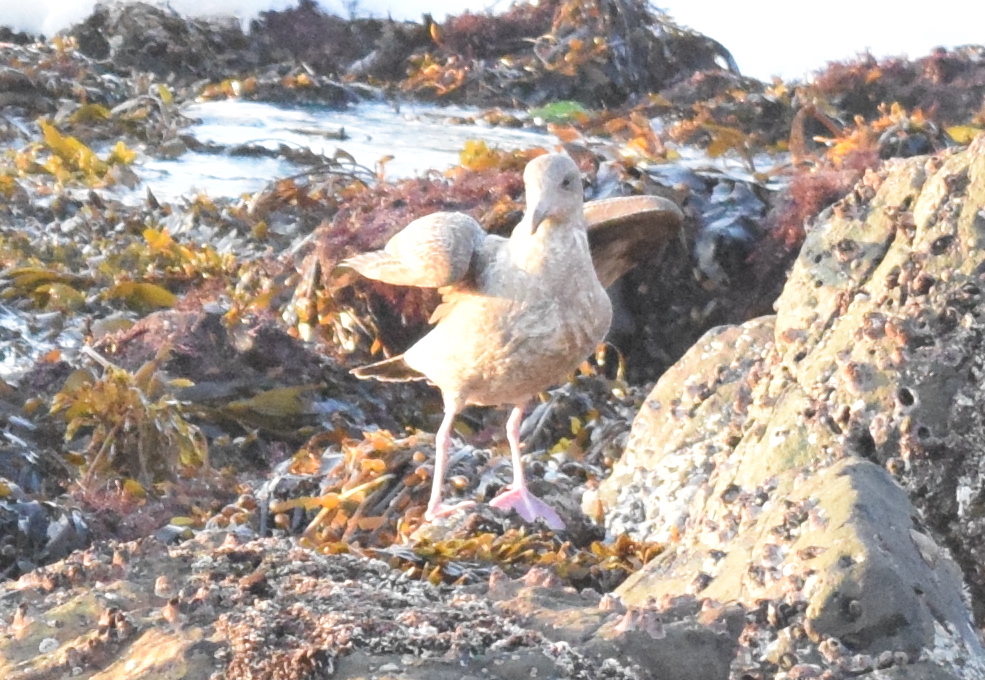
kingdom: Animalia
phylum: Chordata
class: Aves
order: Charadriiformes
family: Laridae
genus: Larus
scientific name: Larus occidentalis
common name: Western gull
